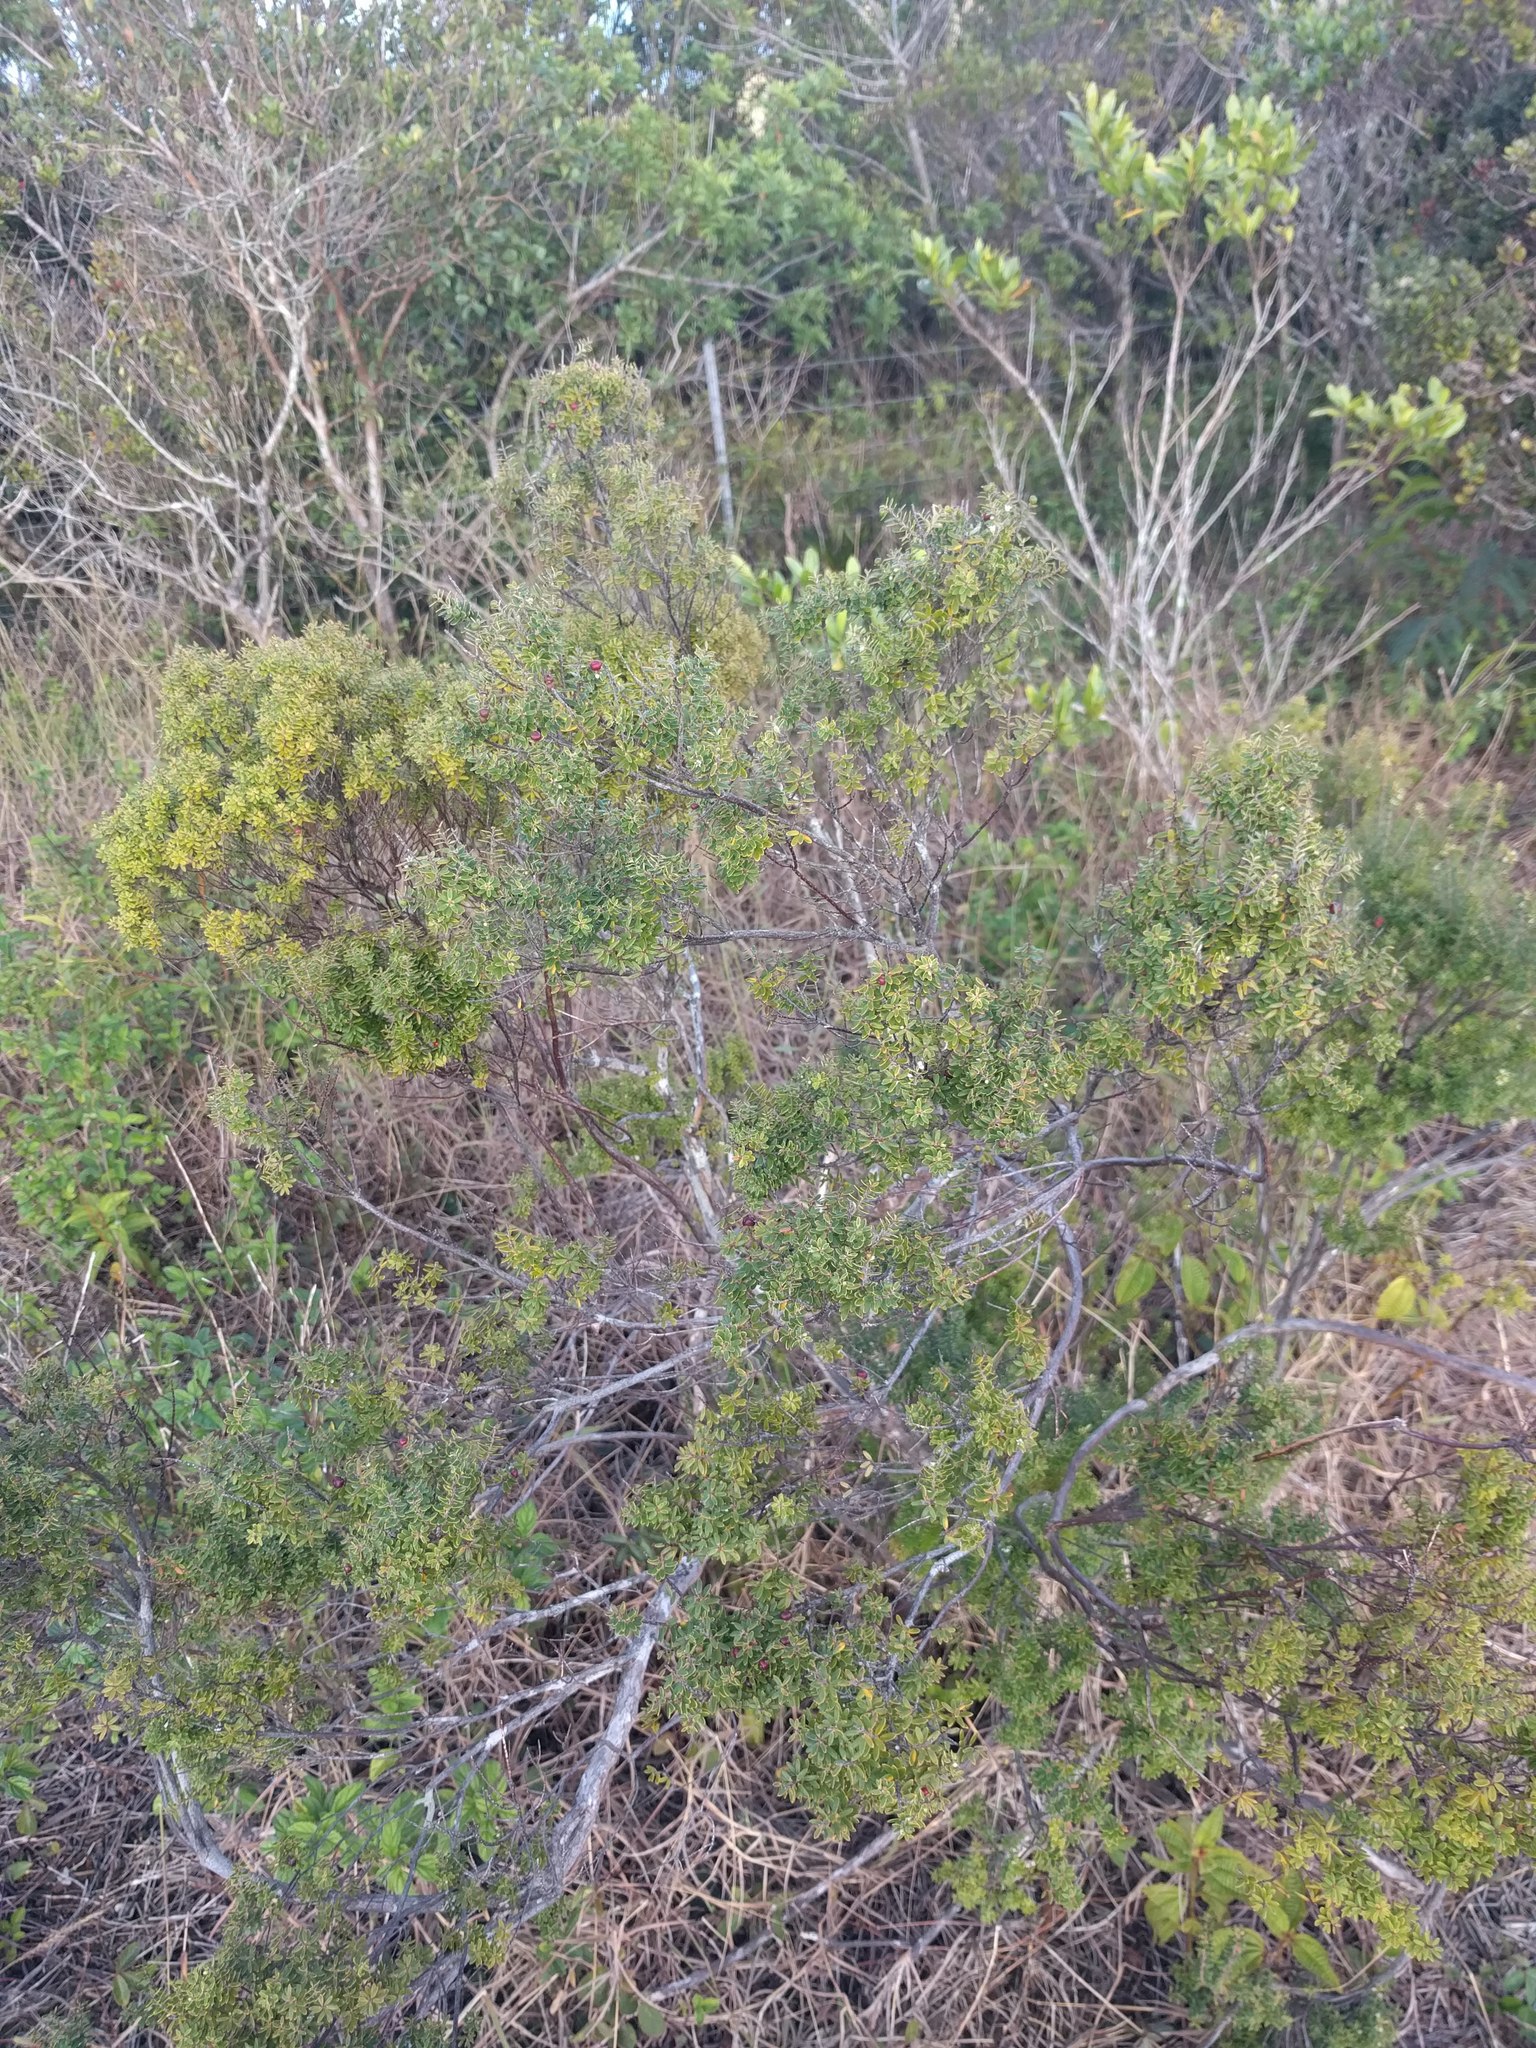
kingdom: Plantae
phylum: Tracheophyta
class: Magnoliopsida
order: Ericales
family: Ericaceae
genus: Leptecophylla
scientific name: Leptecophylla tameiameiae
